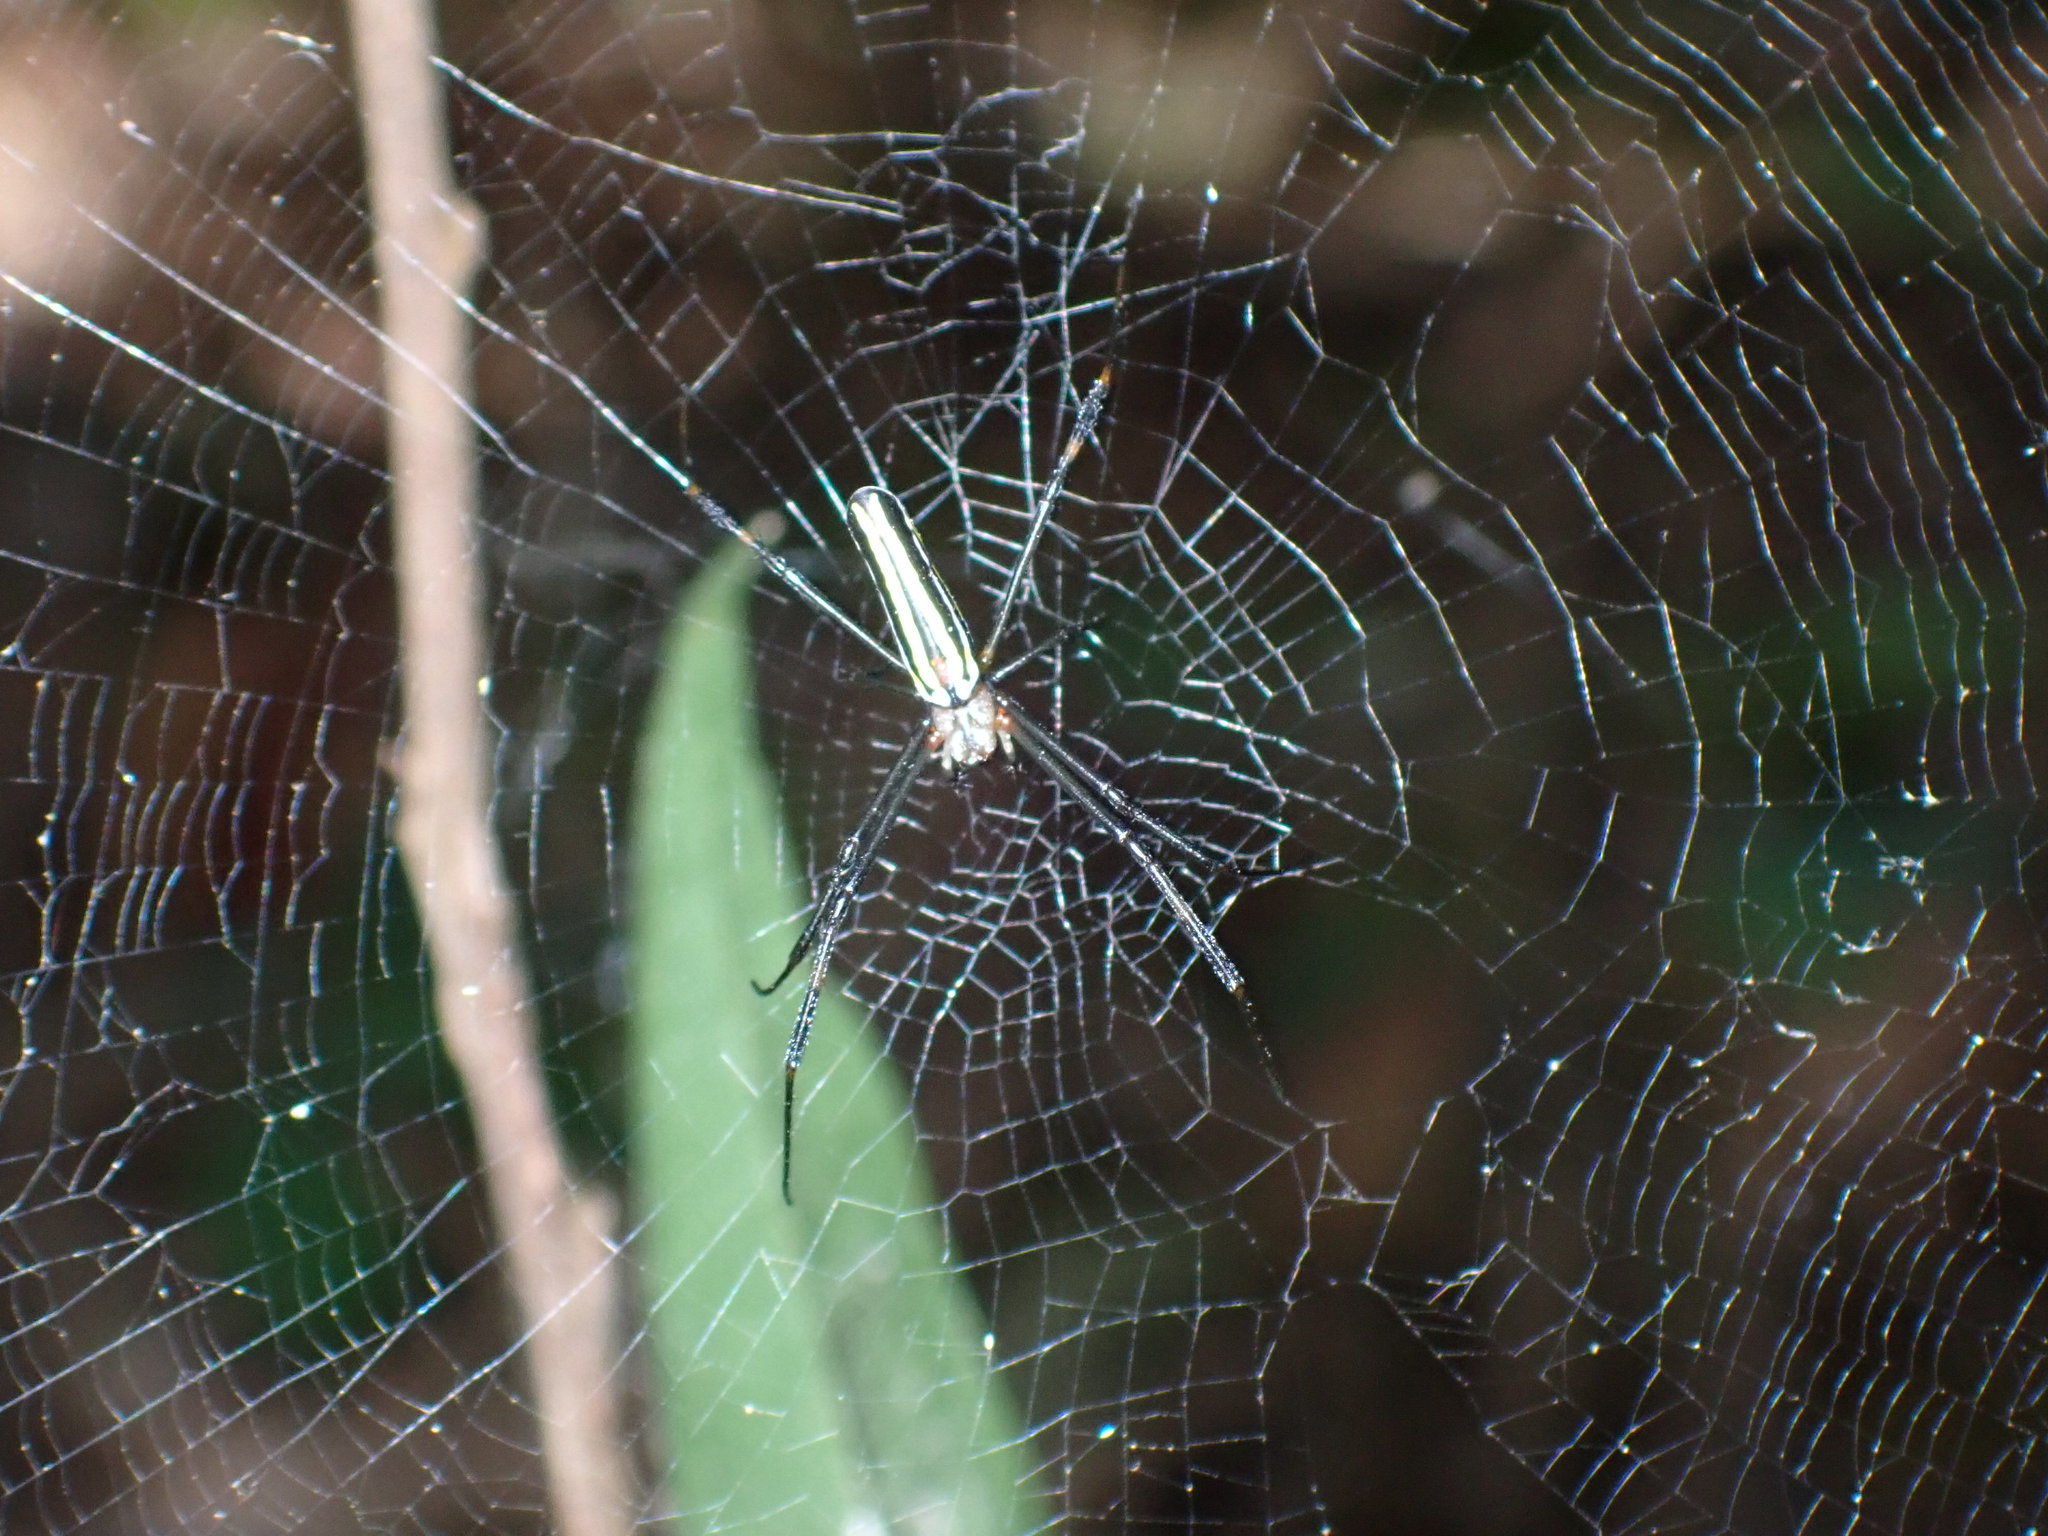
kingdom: Animalia
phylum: Arthropoda
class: Arachnida
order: Araneae
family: Araneidae
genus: Nephila
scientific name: Nephila pilipes
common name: Giant golden orb weaver
